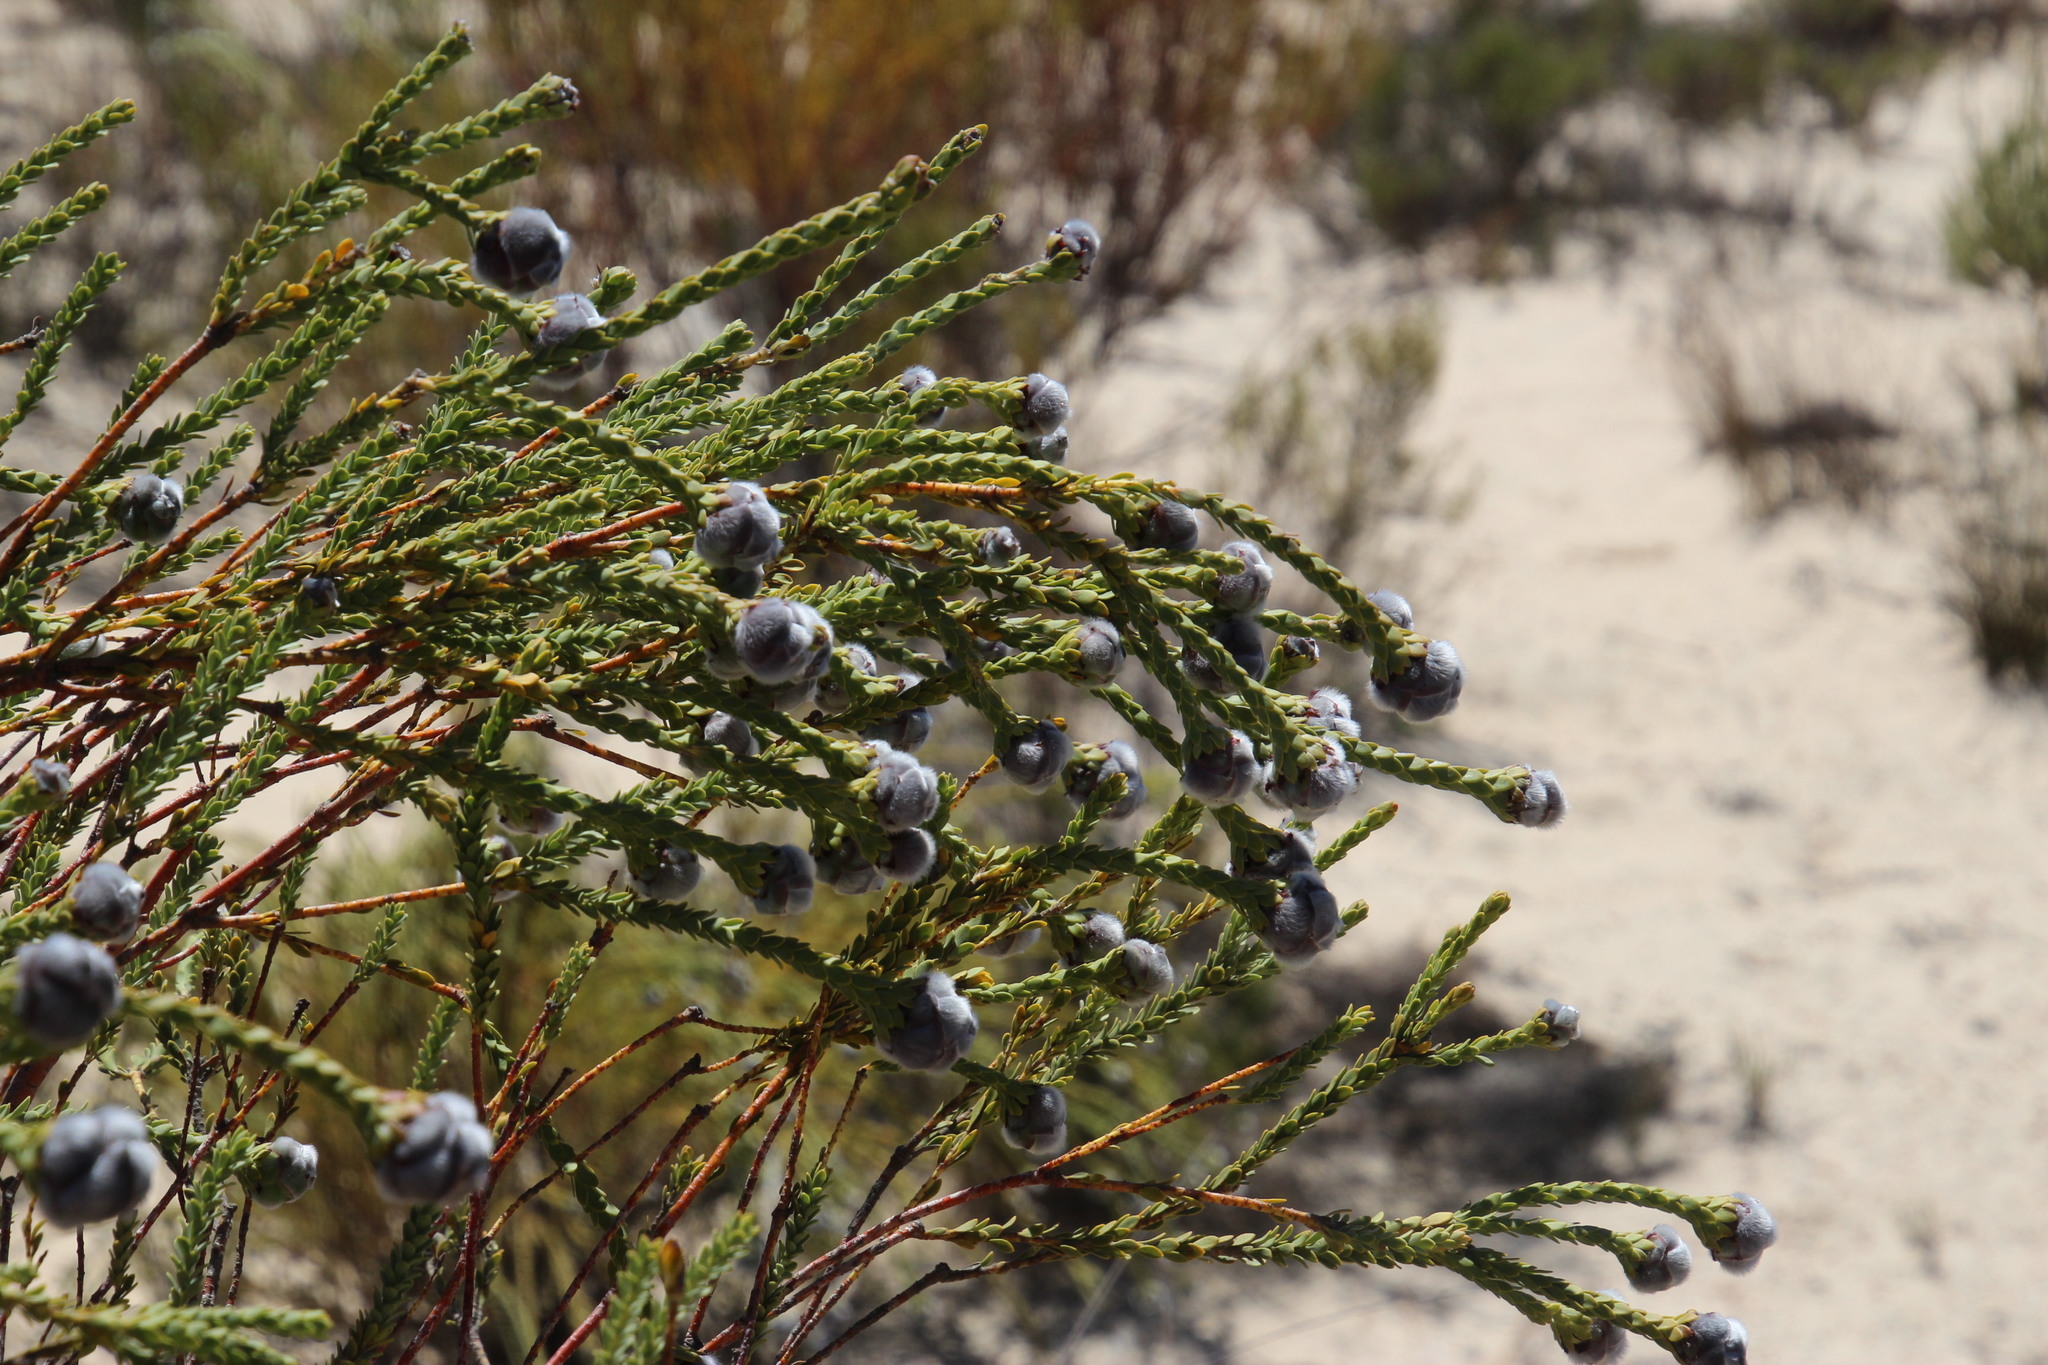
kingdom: Plantae
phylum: Tracheophyta
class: Magnoliopsida
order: Proteales
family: Proteaceae
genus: Leucadendron
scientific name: Leucadendron dubium
